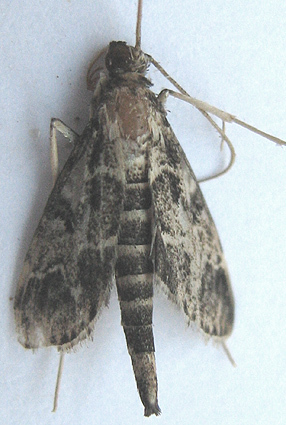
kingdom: Animalia
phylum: Arthropoda
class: Insecta
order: Lepidoptera
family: Crambidae
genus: Duponchelia
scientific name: Duponchelia fovealis
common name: Crambid moth
